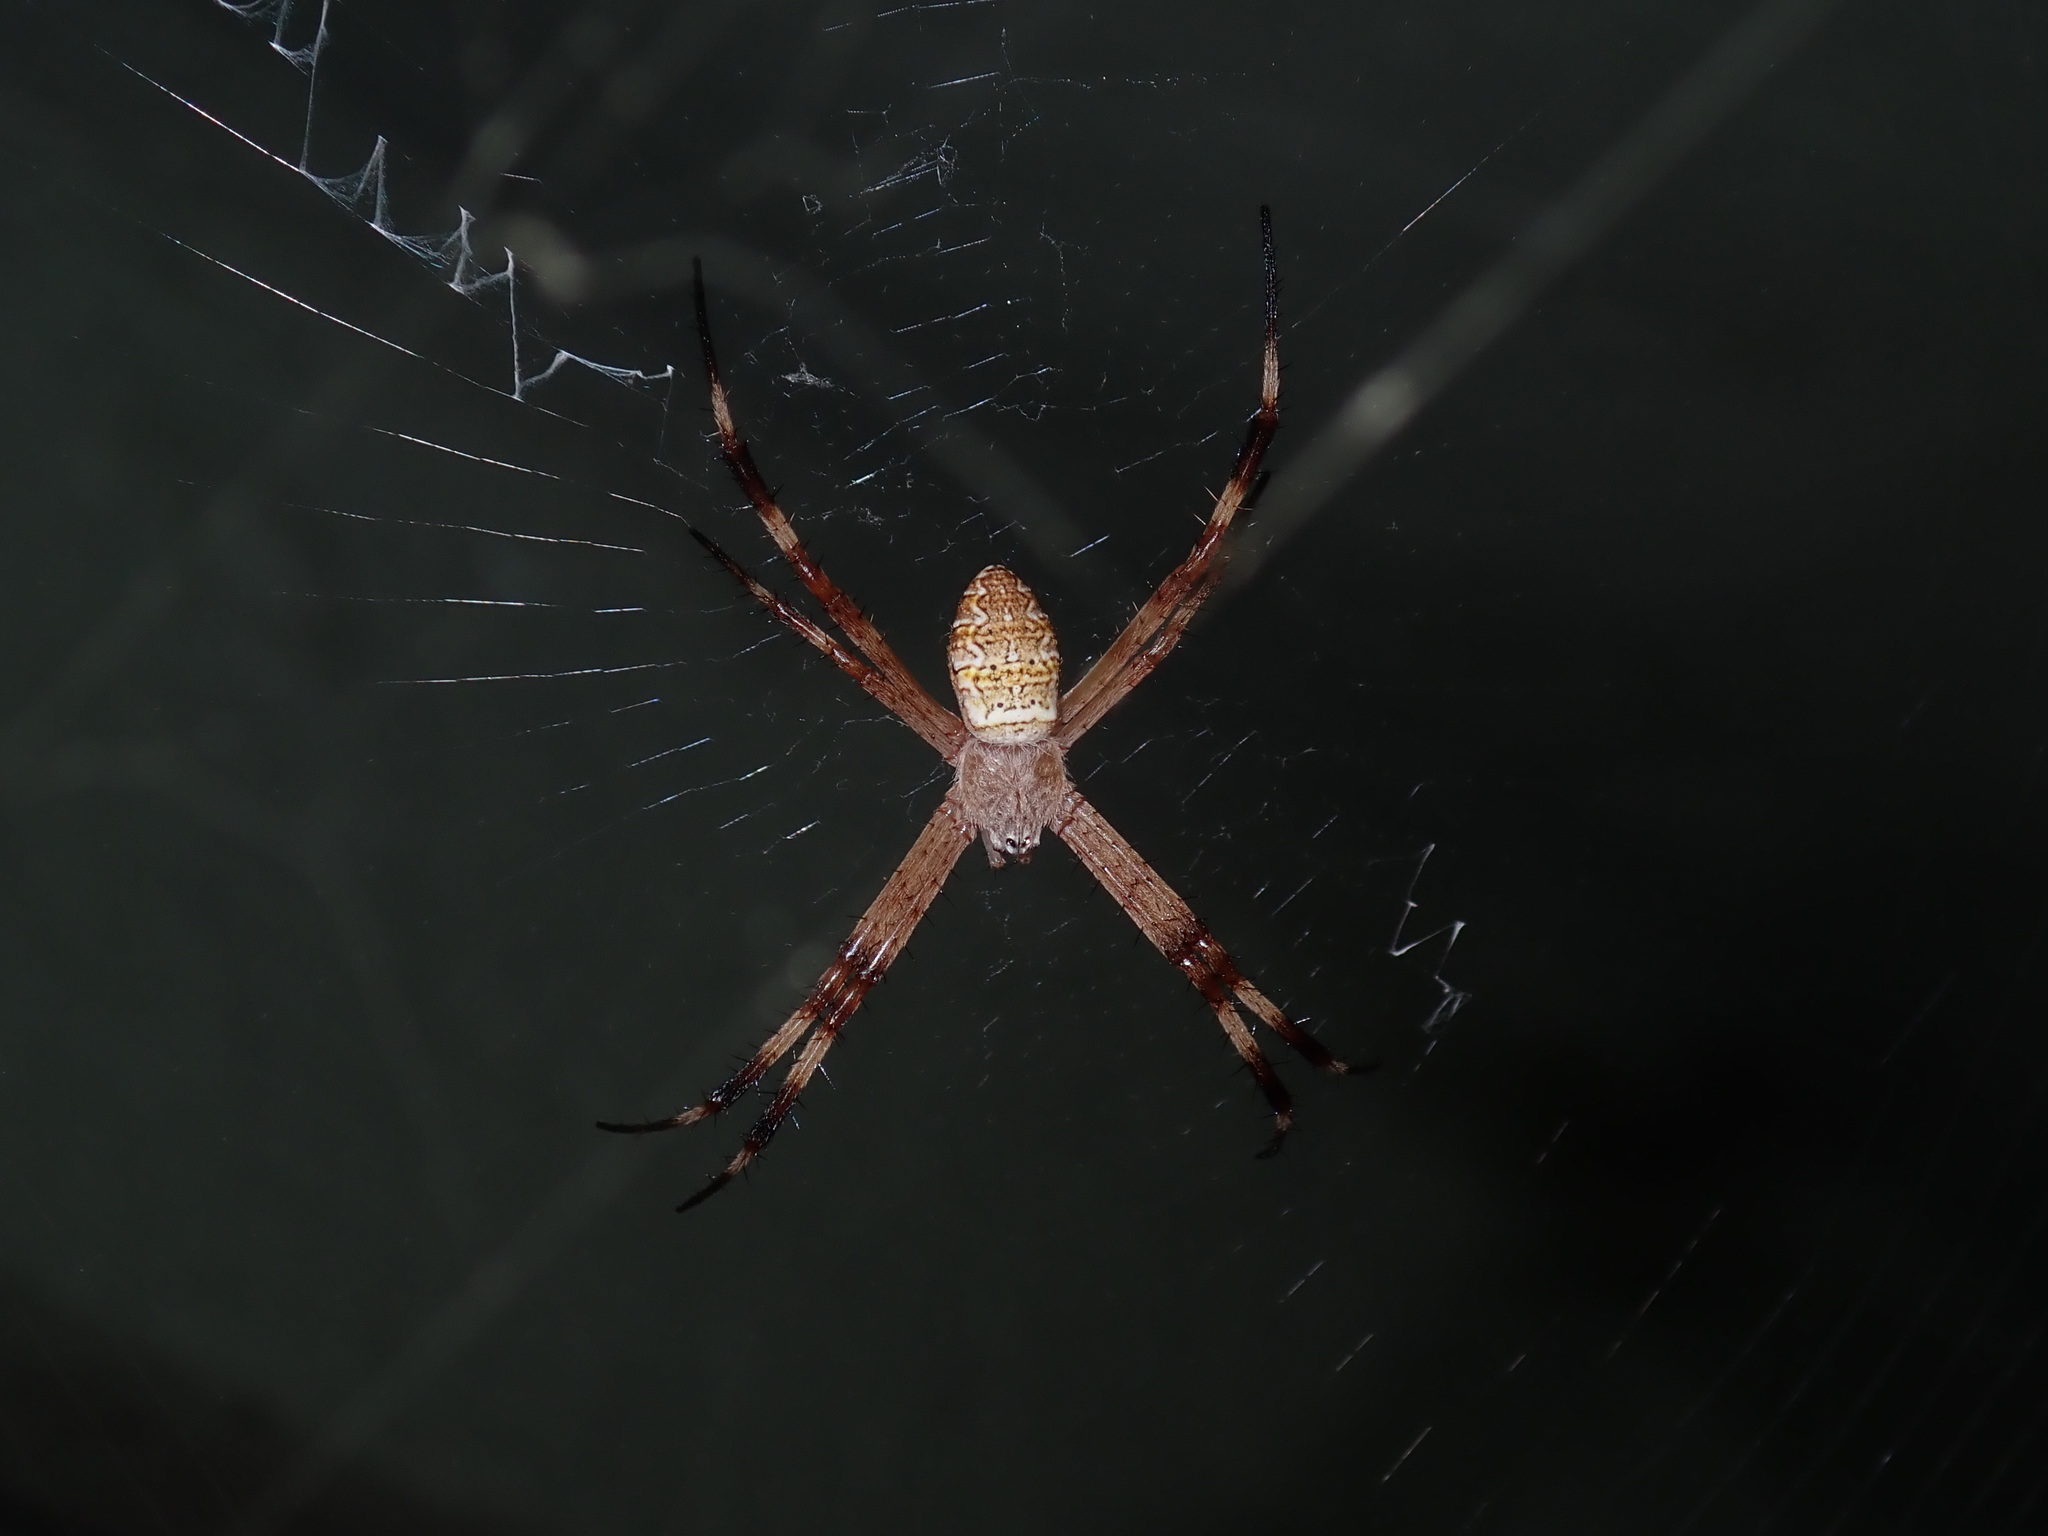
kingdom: Animalia
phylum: Arthropoda
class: Arachnida
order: Araneae
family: Araneidae
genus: Argiope
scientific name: Argiope katherina
